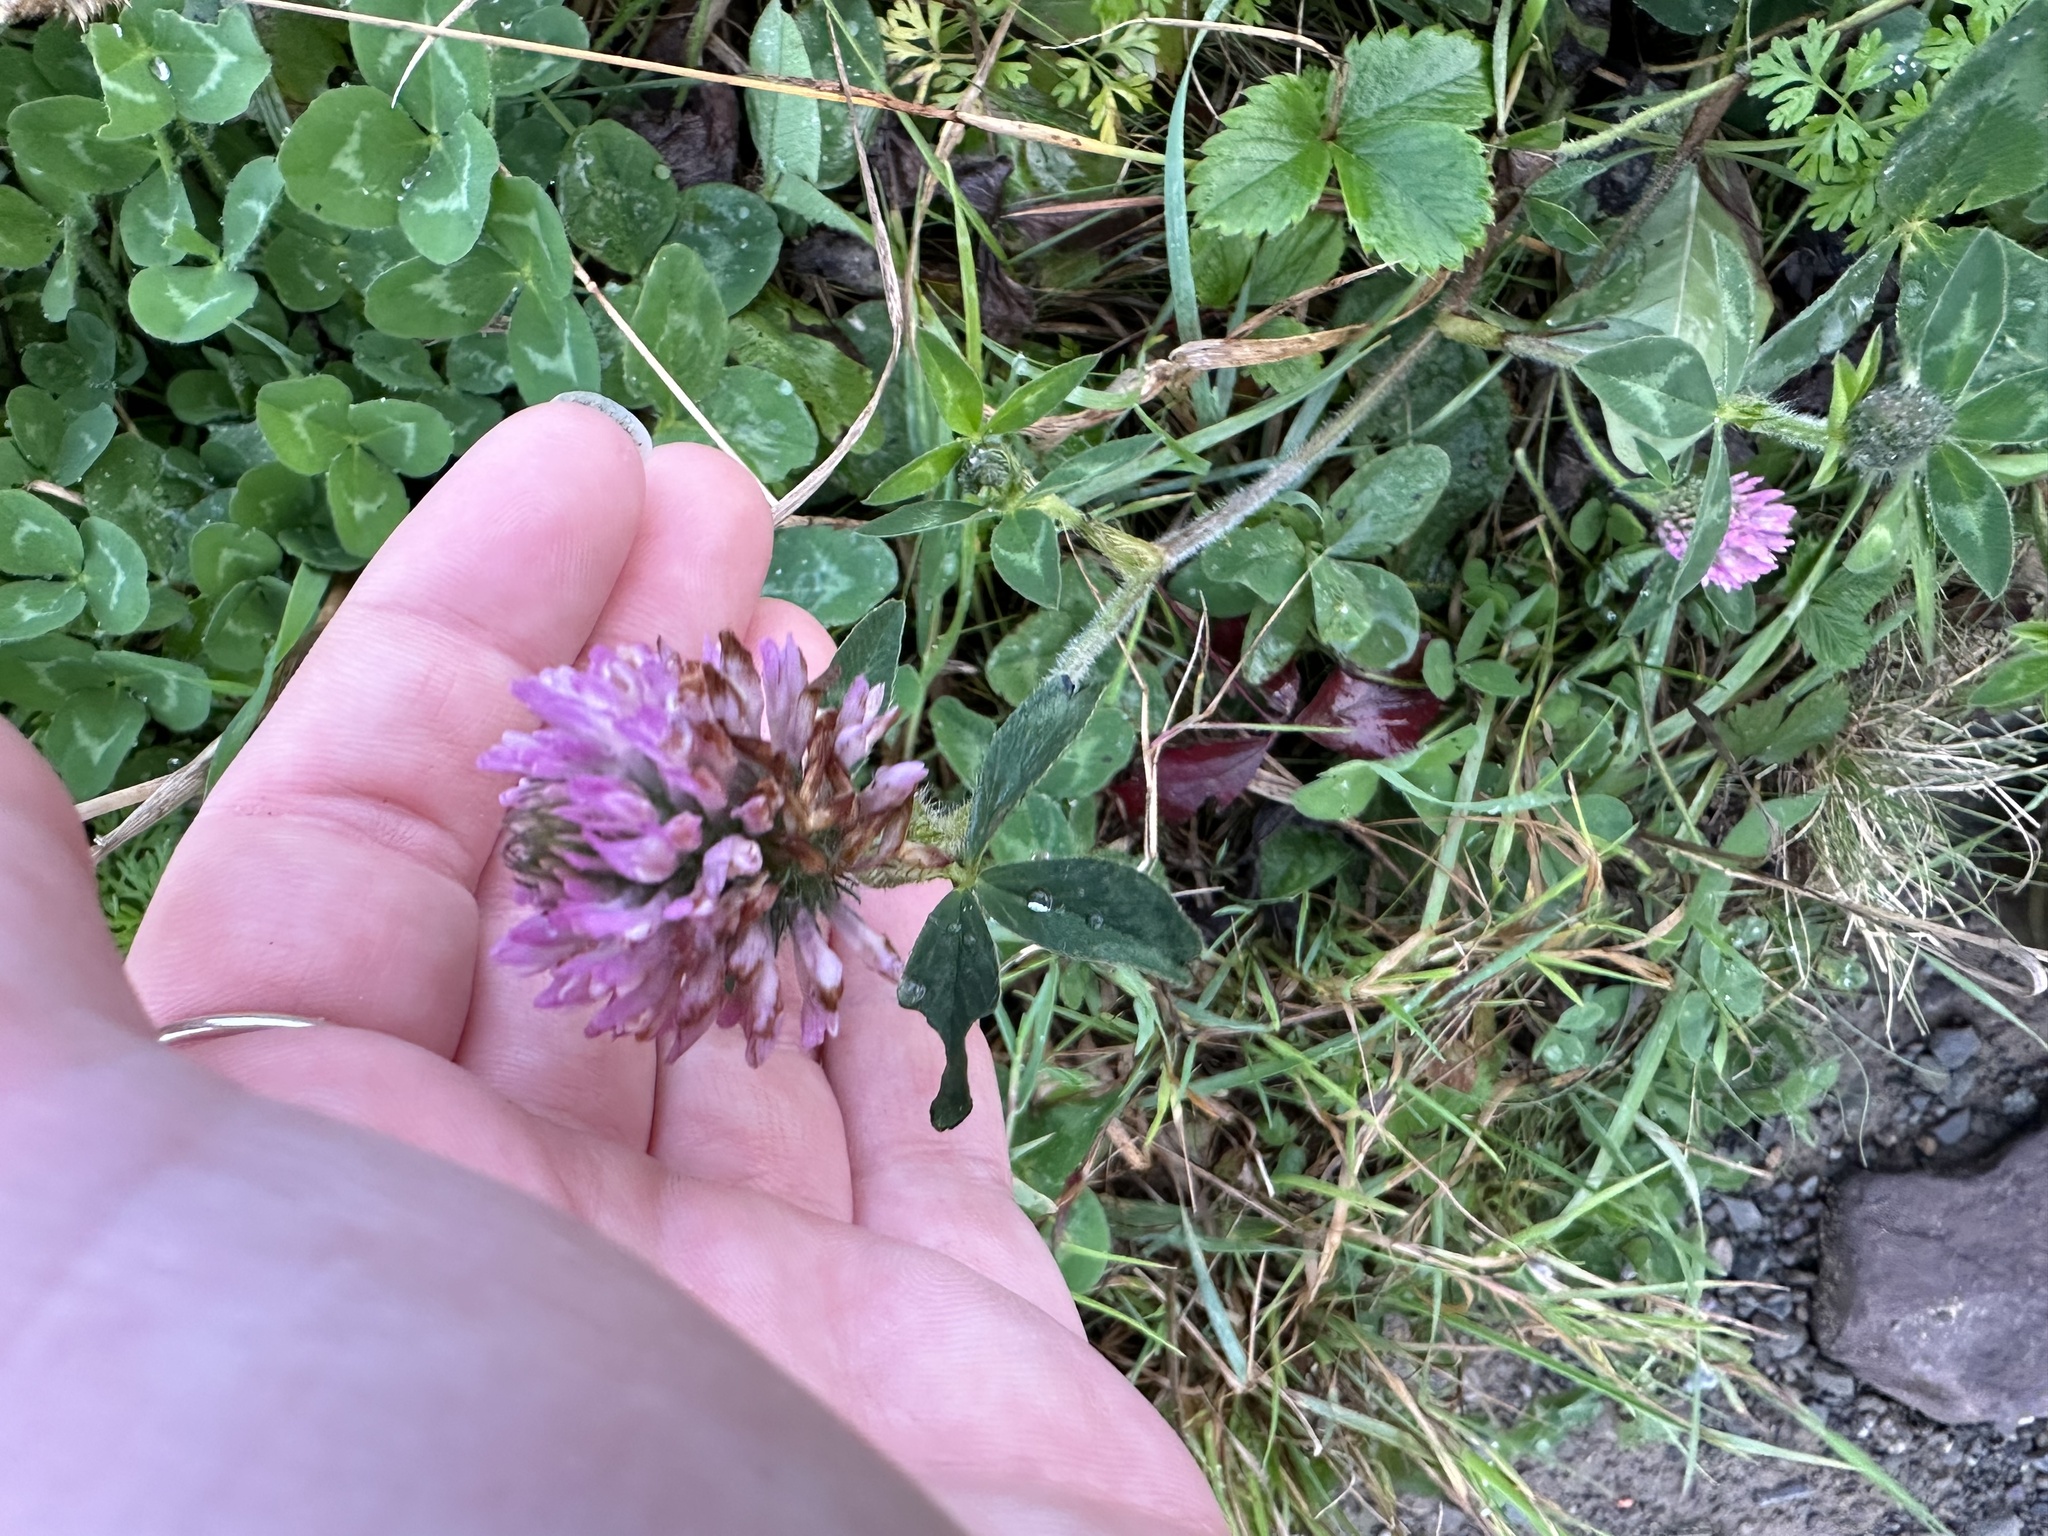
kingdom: Plantae
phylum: Tracheophyta
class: Magnoliopsida
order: Fabales
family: Fabaceae
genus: Trifolium
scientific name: Trifolium pratense
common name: Red clover
